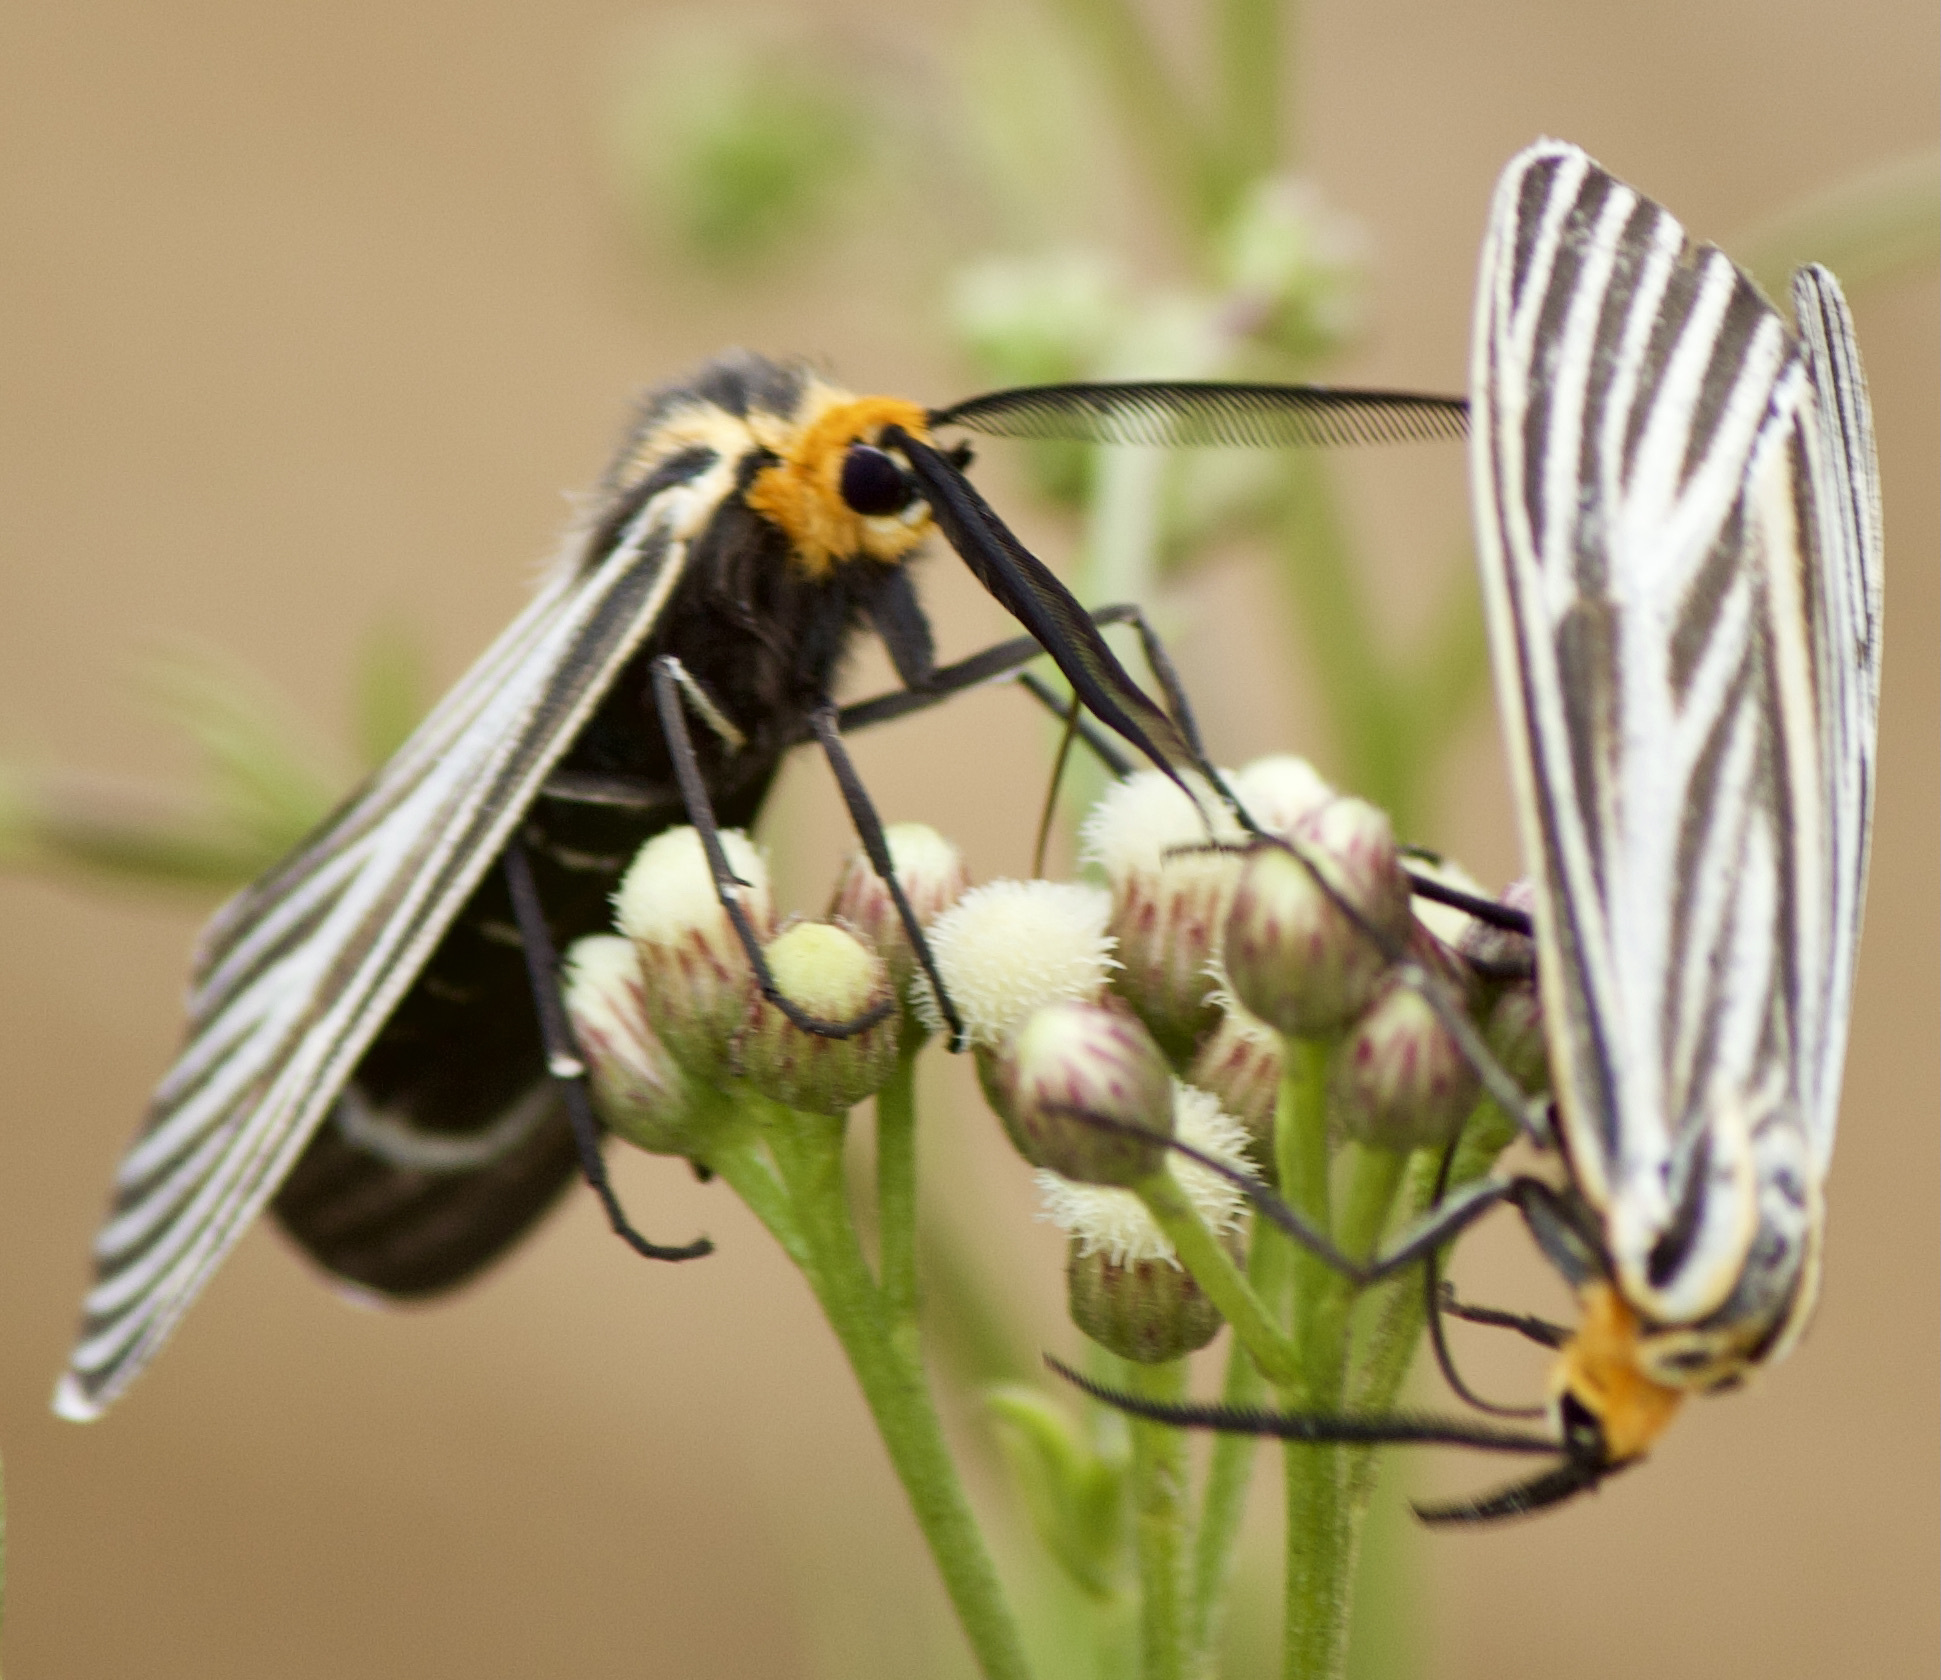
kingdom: Animalia
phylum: Arthropoda
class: Insecta
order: Lepidoptera
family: Erebidae
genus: Ctenucha
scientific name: Ctenucha vittigerum
